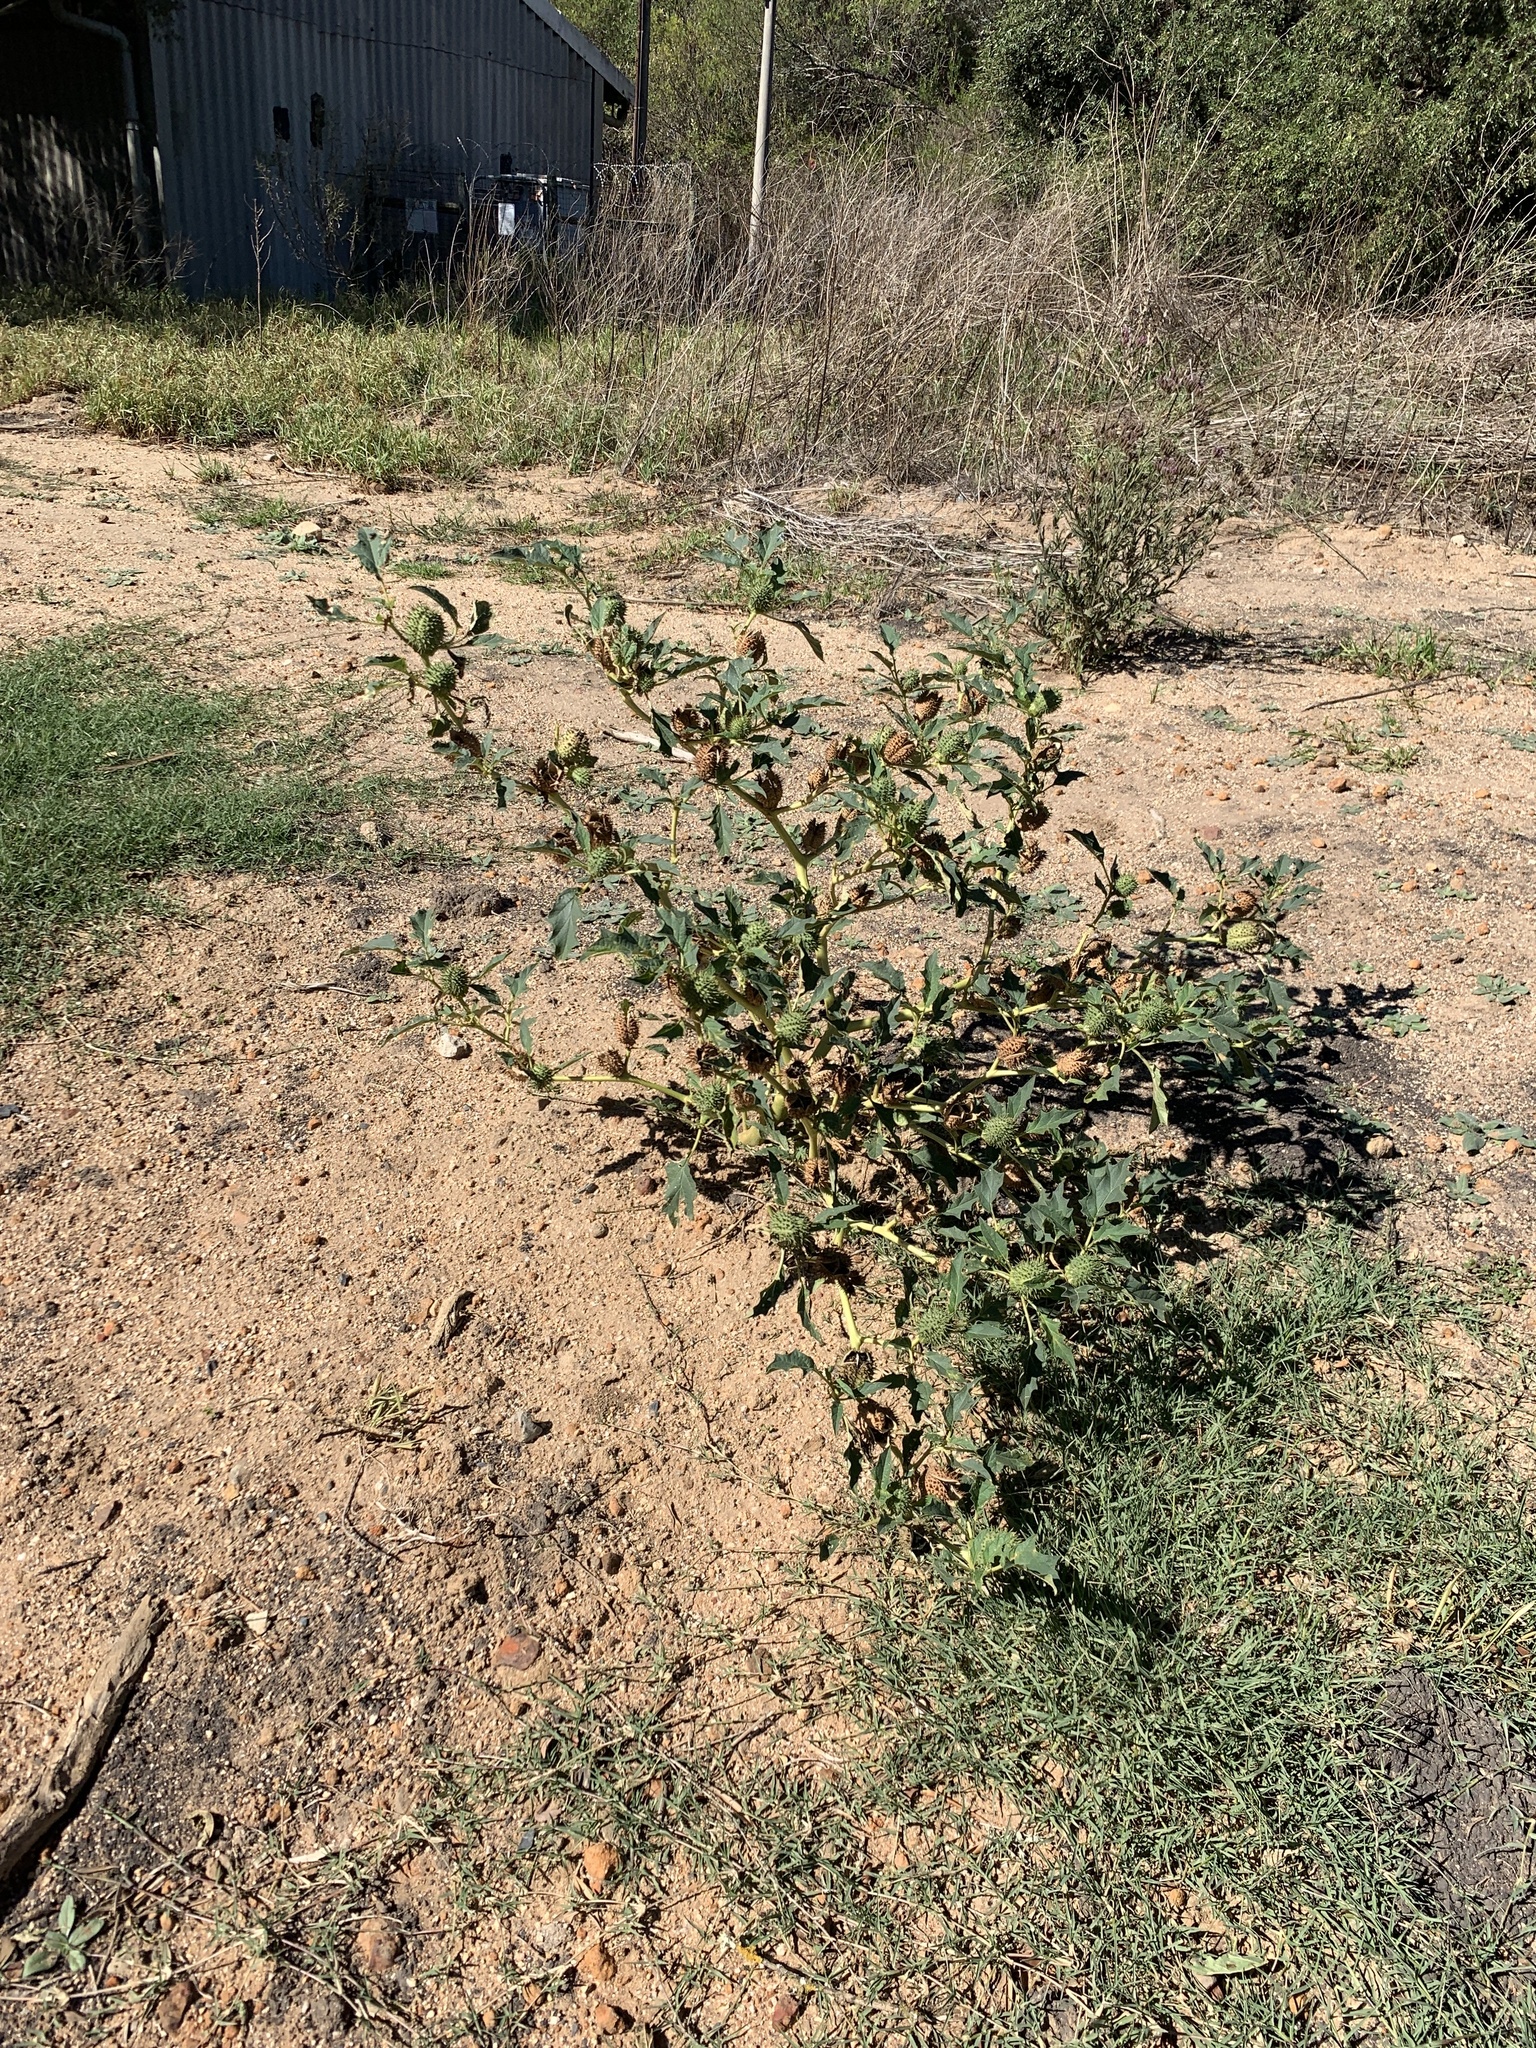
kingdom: Plantae
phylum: Tracheophyta
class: Magnoliopsida
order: Solanales
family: Solanaceae
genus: Datura
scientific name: Datura stramonium
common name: Thorn-apple
